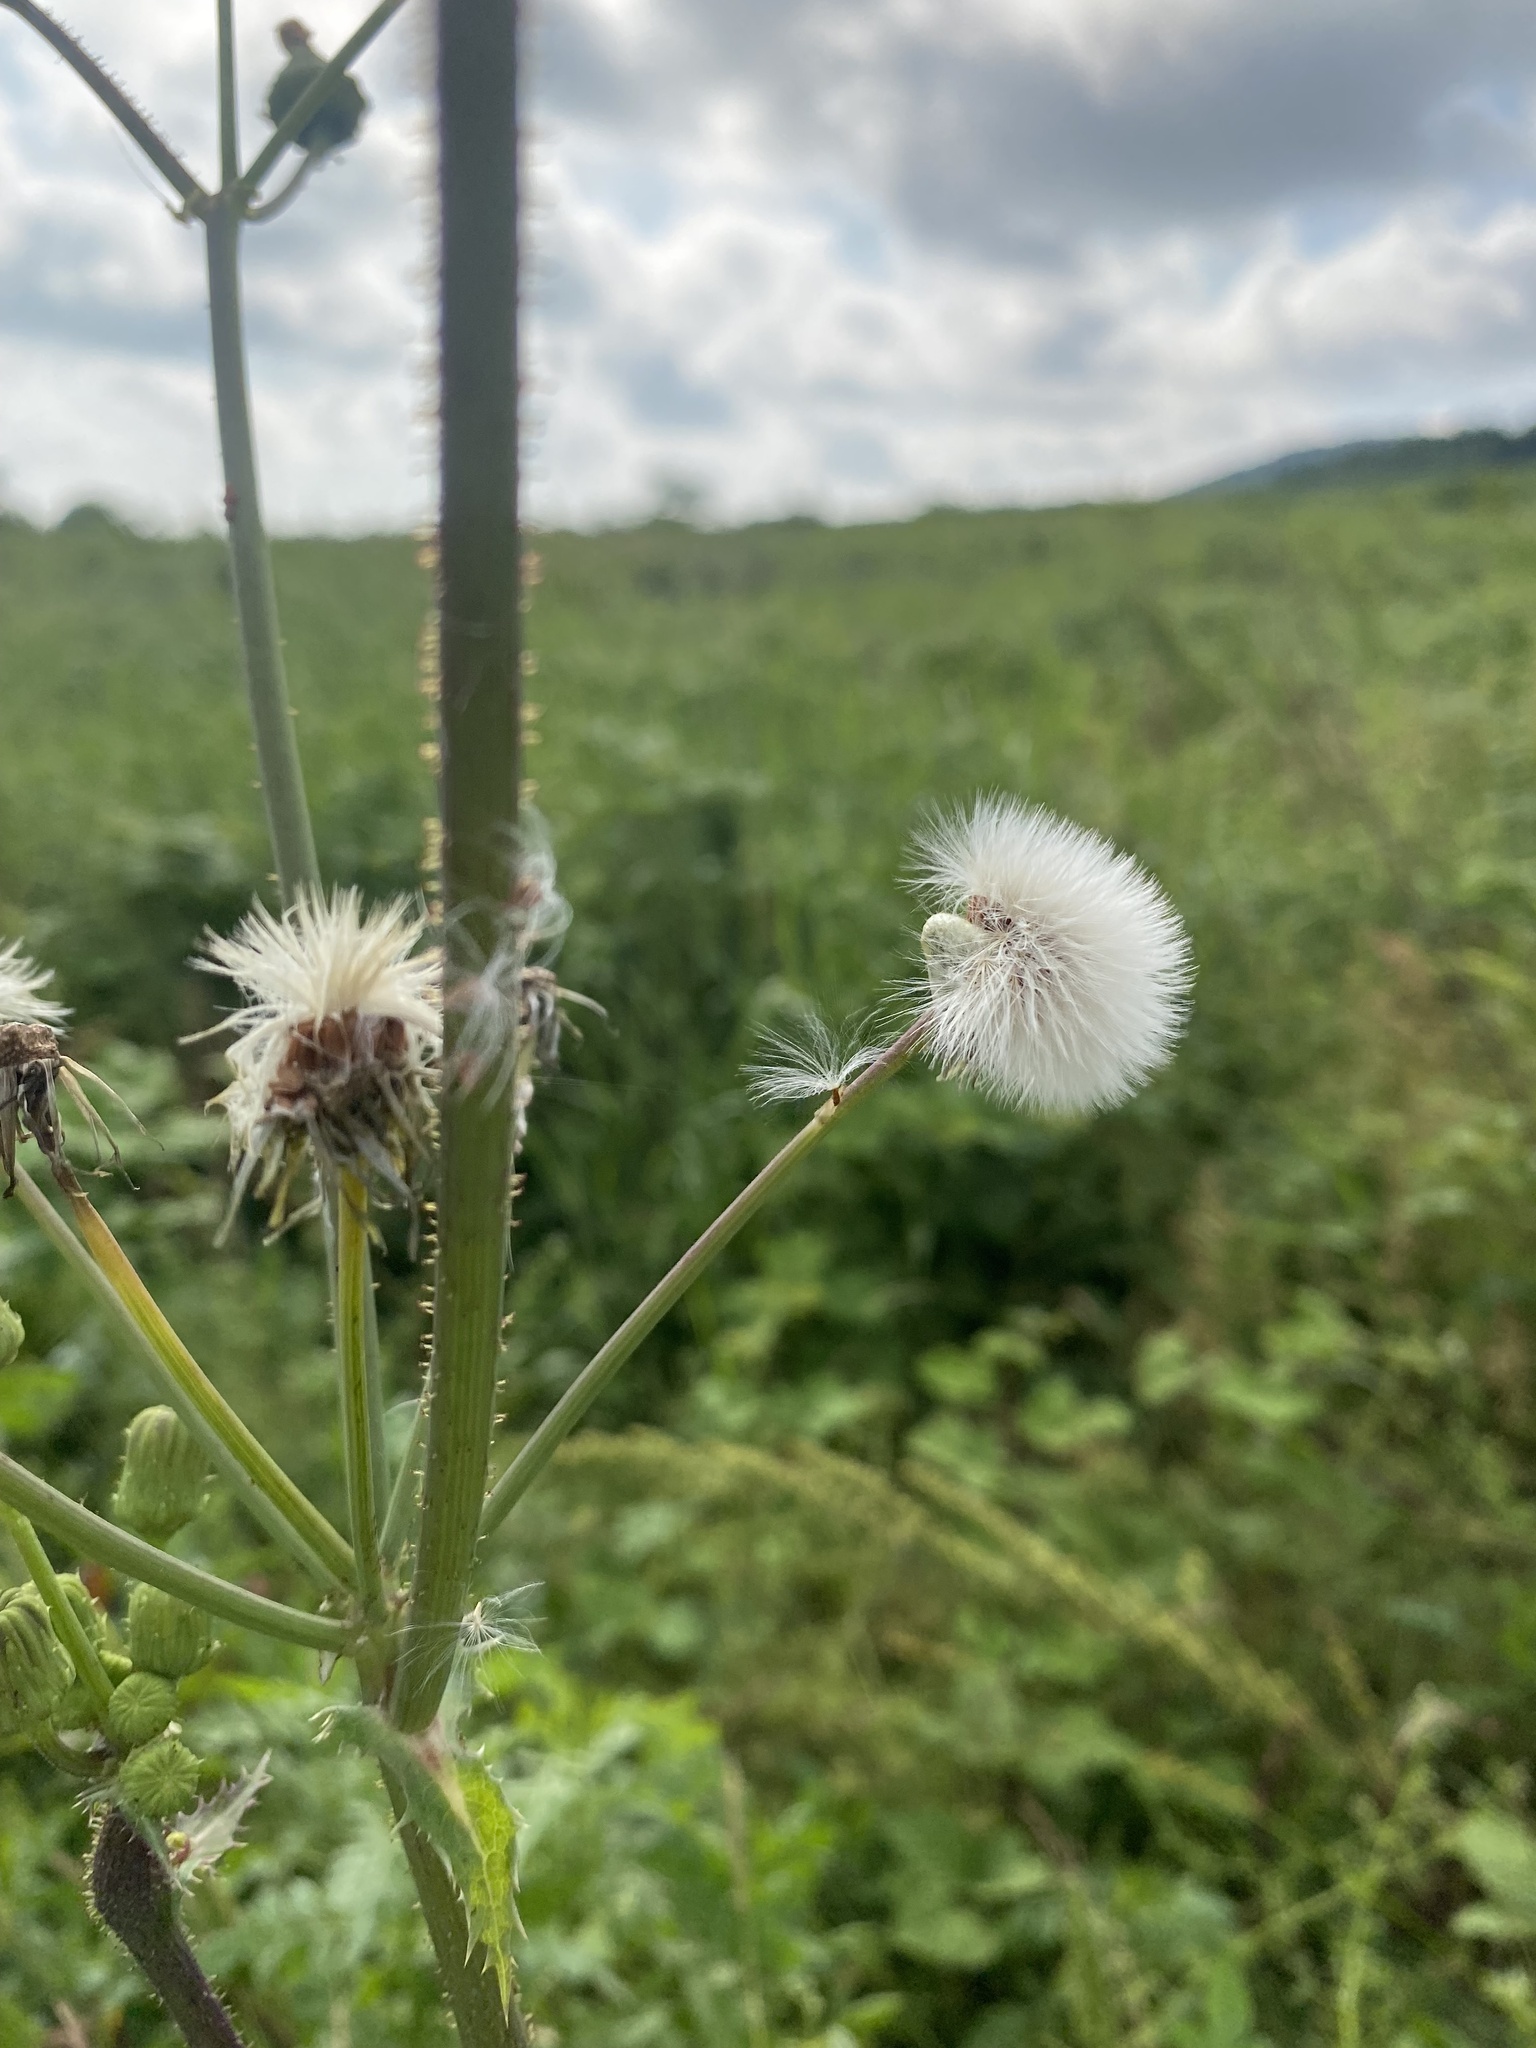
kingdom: Plantae
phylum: Tracheophyta
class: Magnoliopsida
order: Asterales
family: Asteraceae
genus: Sonchus
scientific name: Sonchus asper
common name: Prickly sow-thistle
